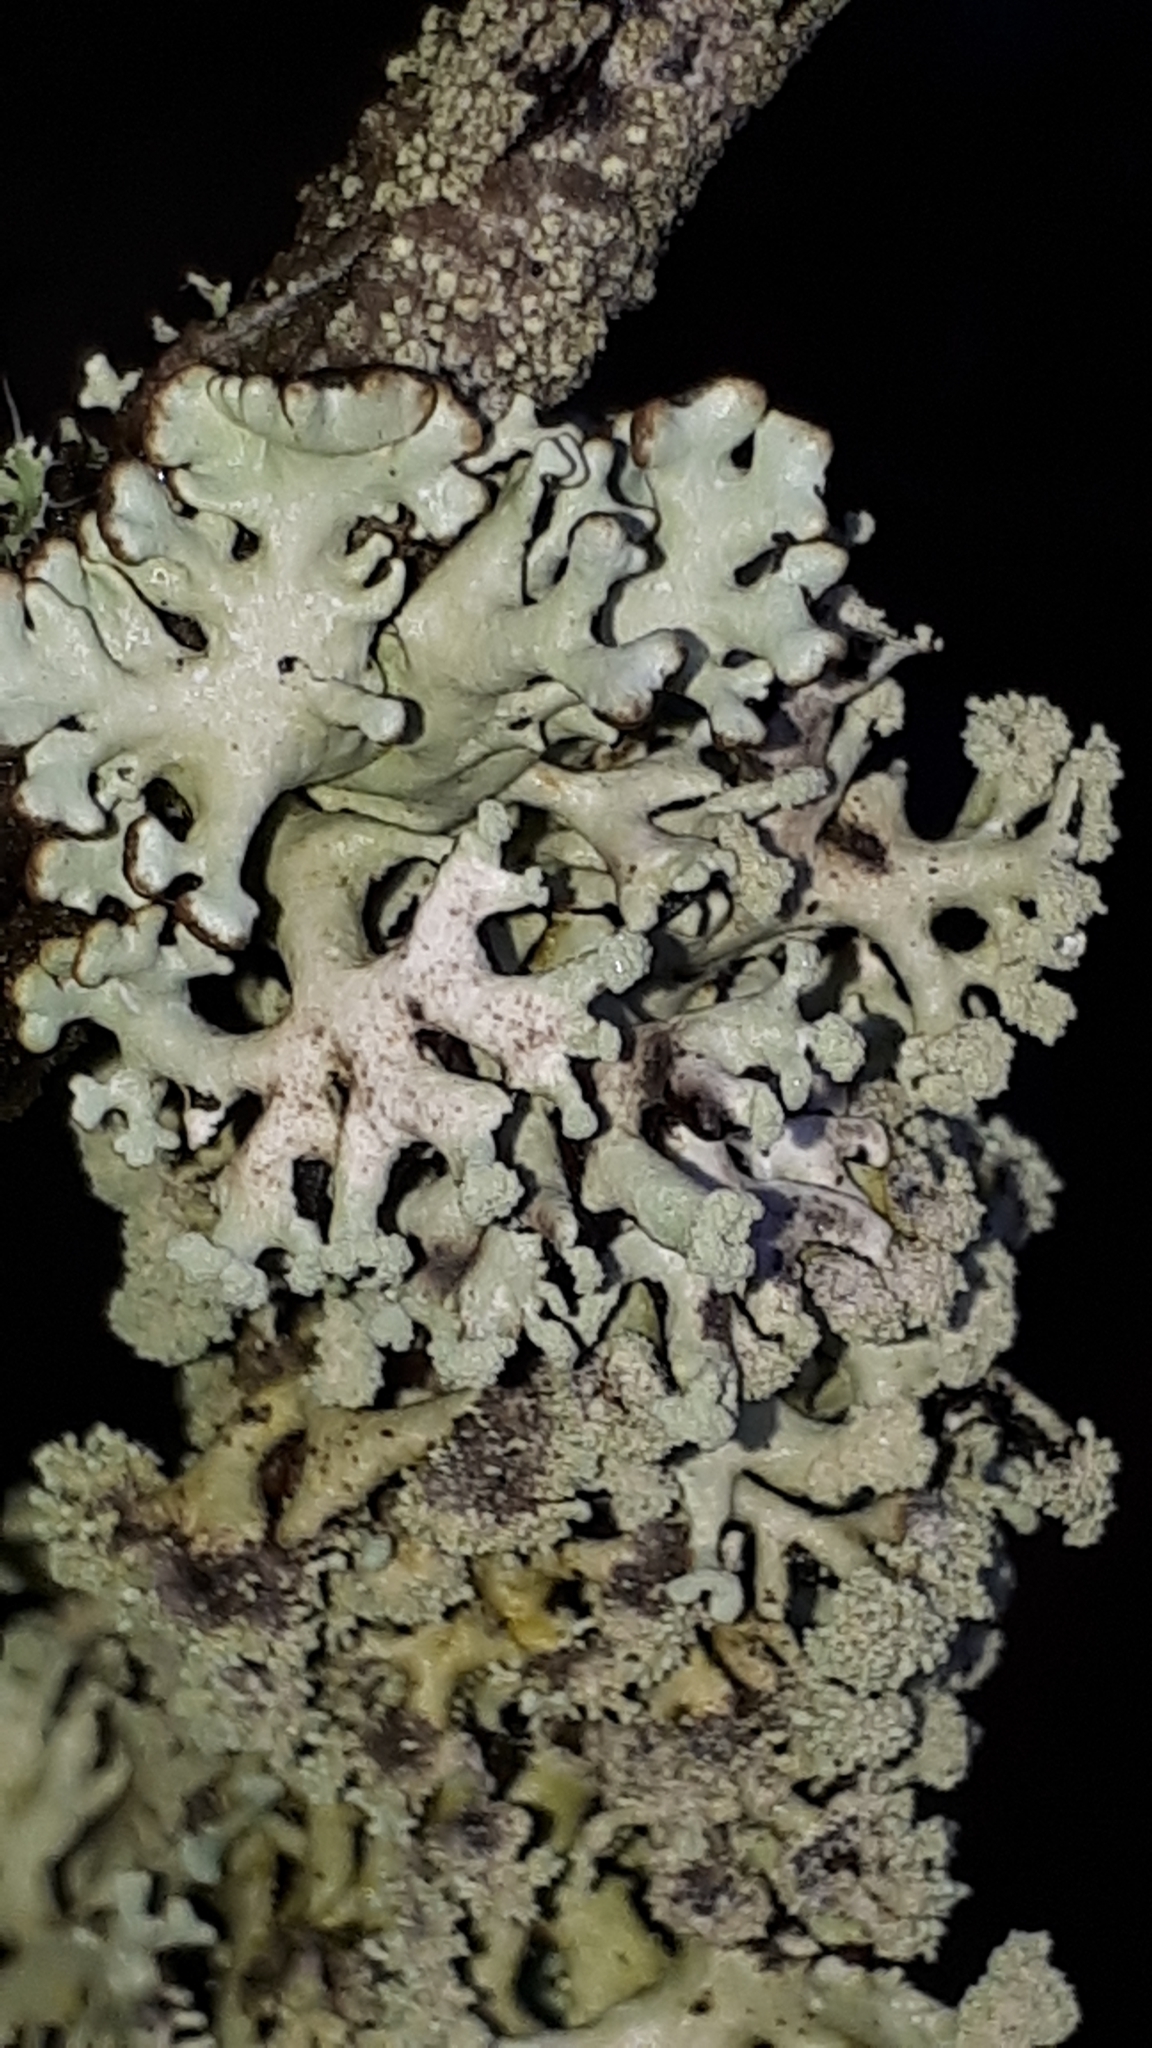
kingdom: Fungi
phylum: Ascomycota
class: Lecanoromycetes
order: Lecanorales
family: Parmeliaceae
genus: Hypogymnia
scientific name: Hypogymnia tubulosa
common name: Powder-headed tube lichen
